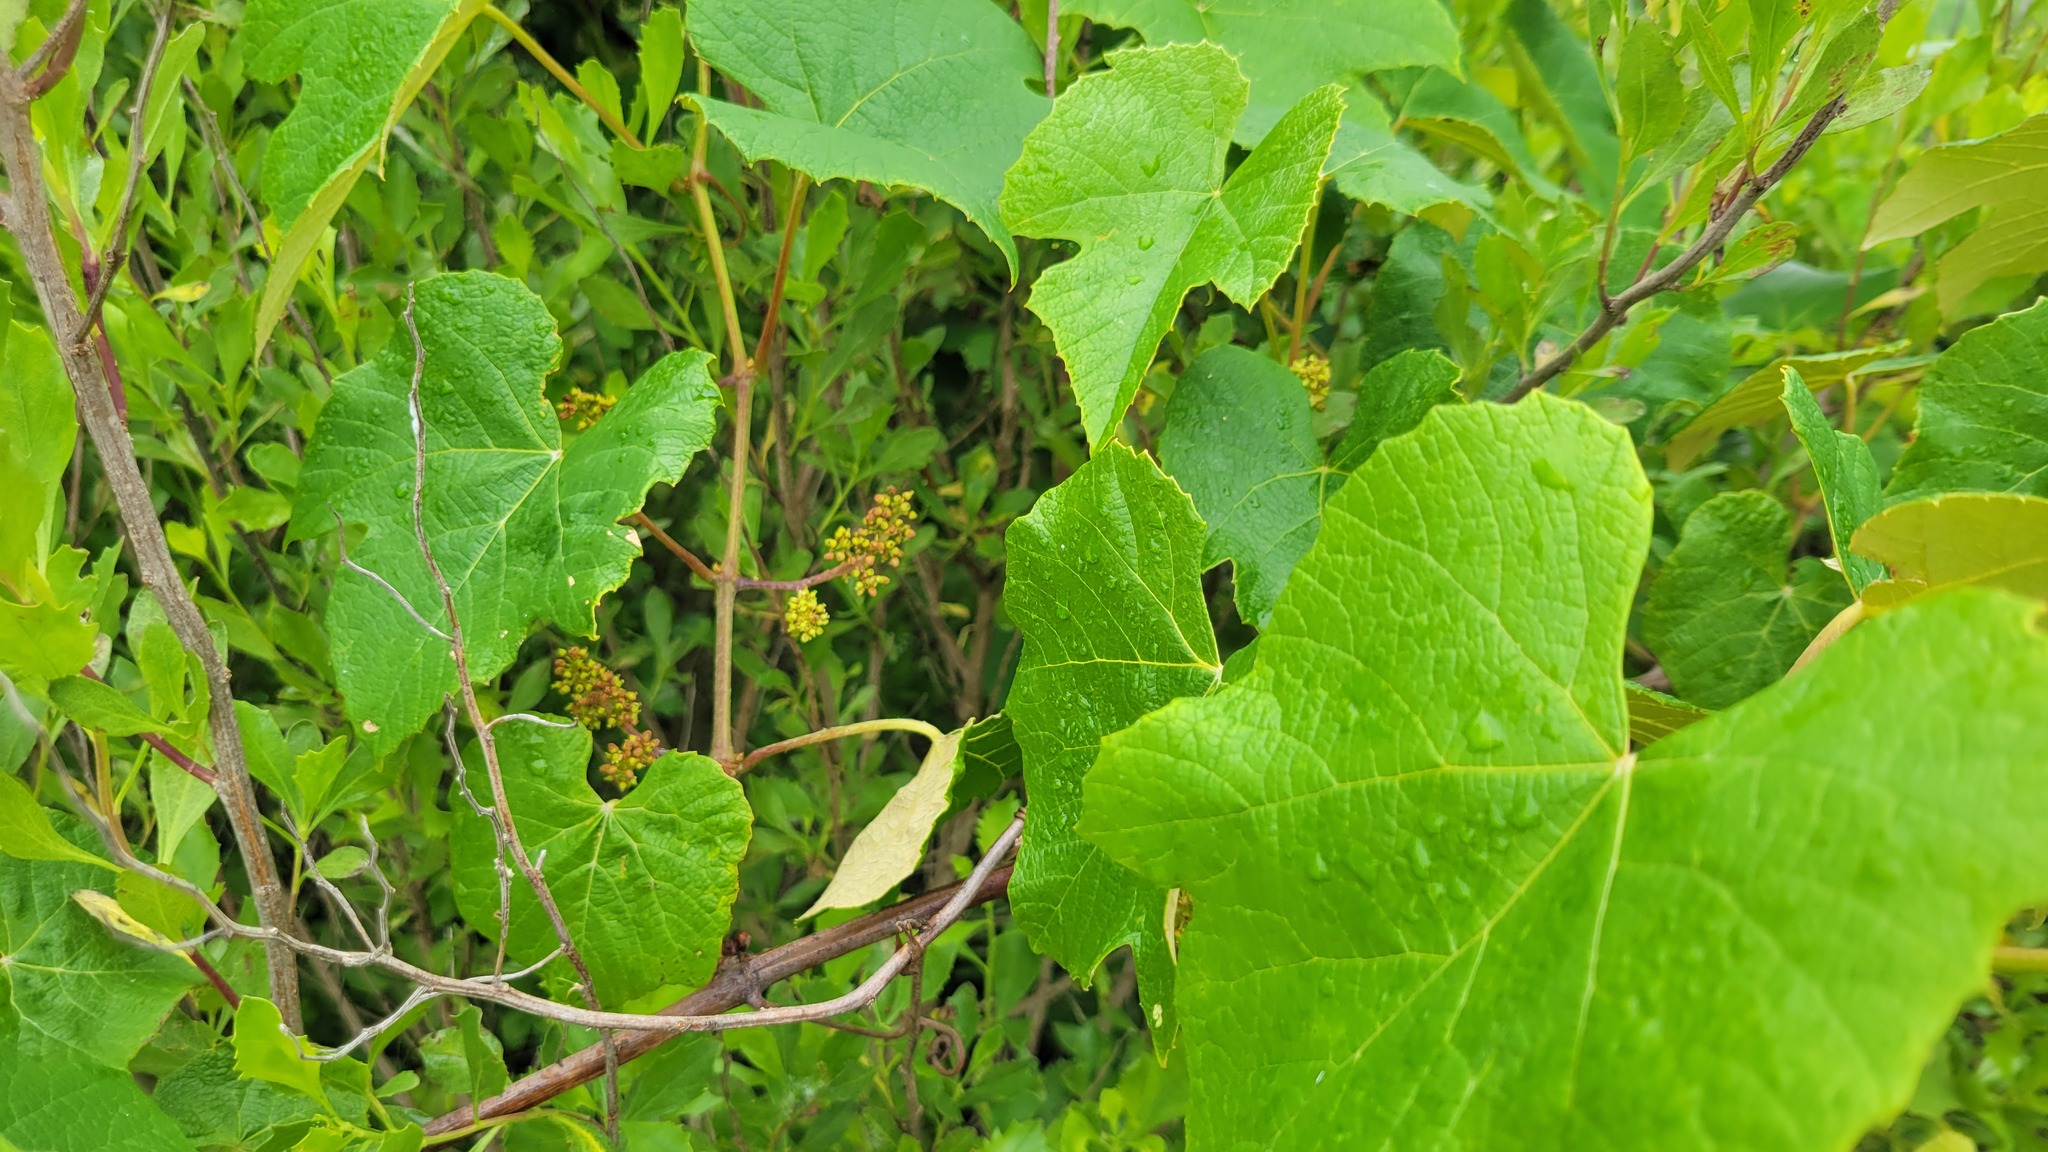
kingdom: Plantae
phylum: Tracheophyta
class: Magnoliopsida
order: Vitales
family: Vitaceae
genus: Vitis
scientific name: Vitis labrusca
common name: Concord grape
